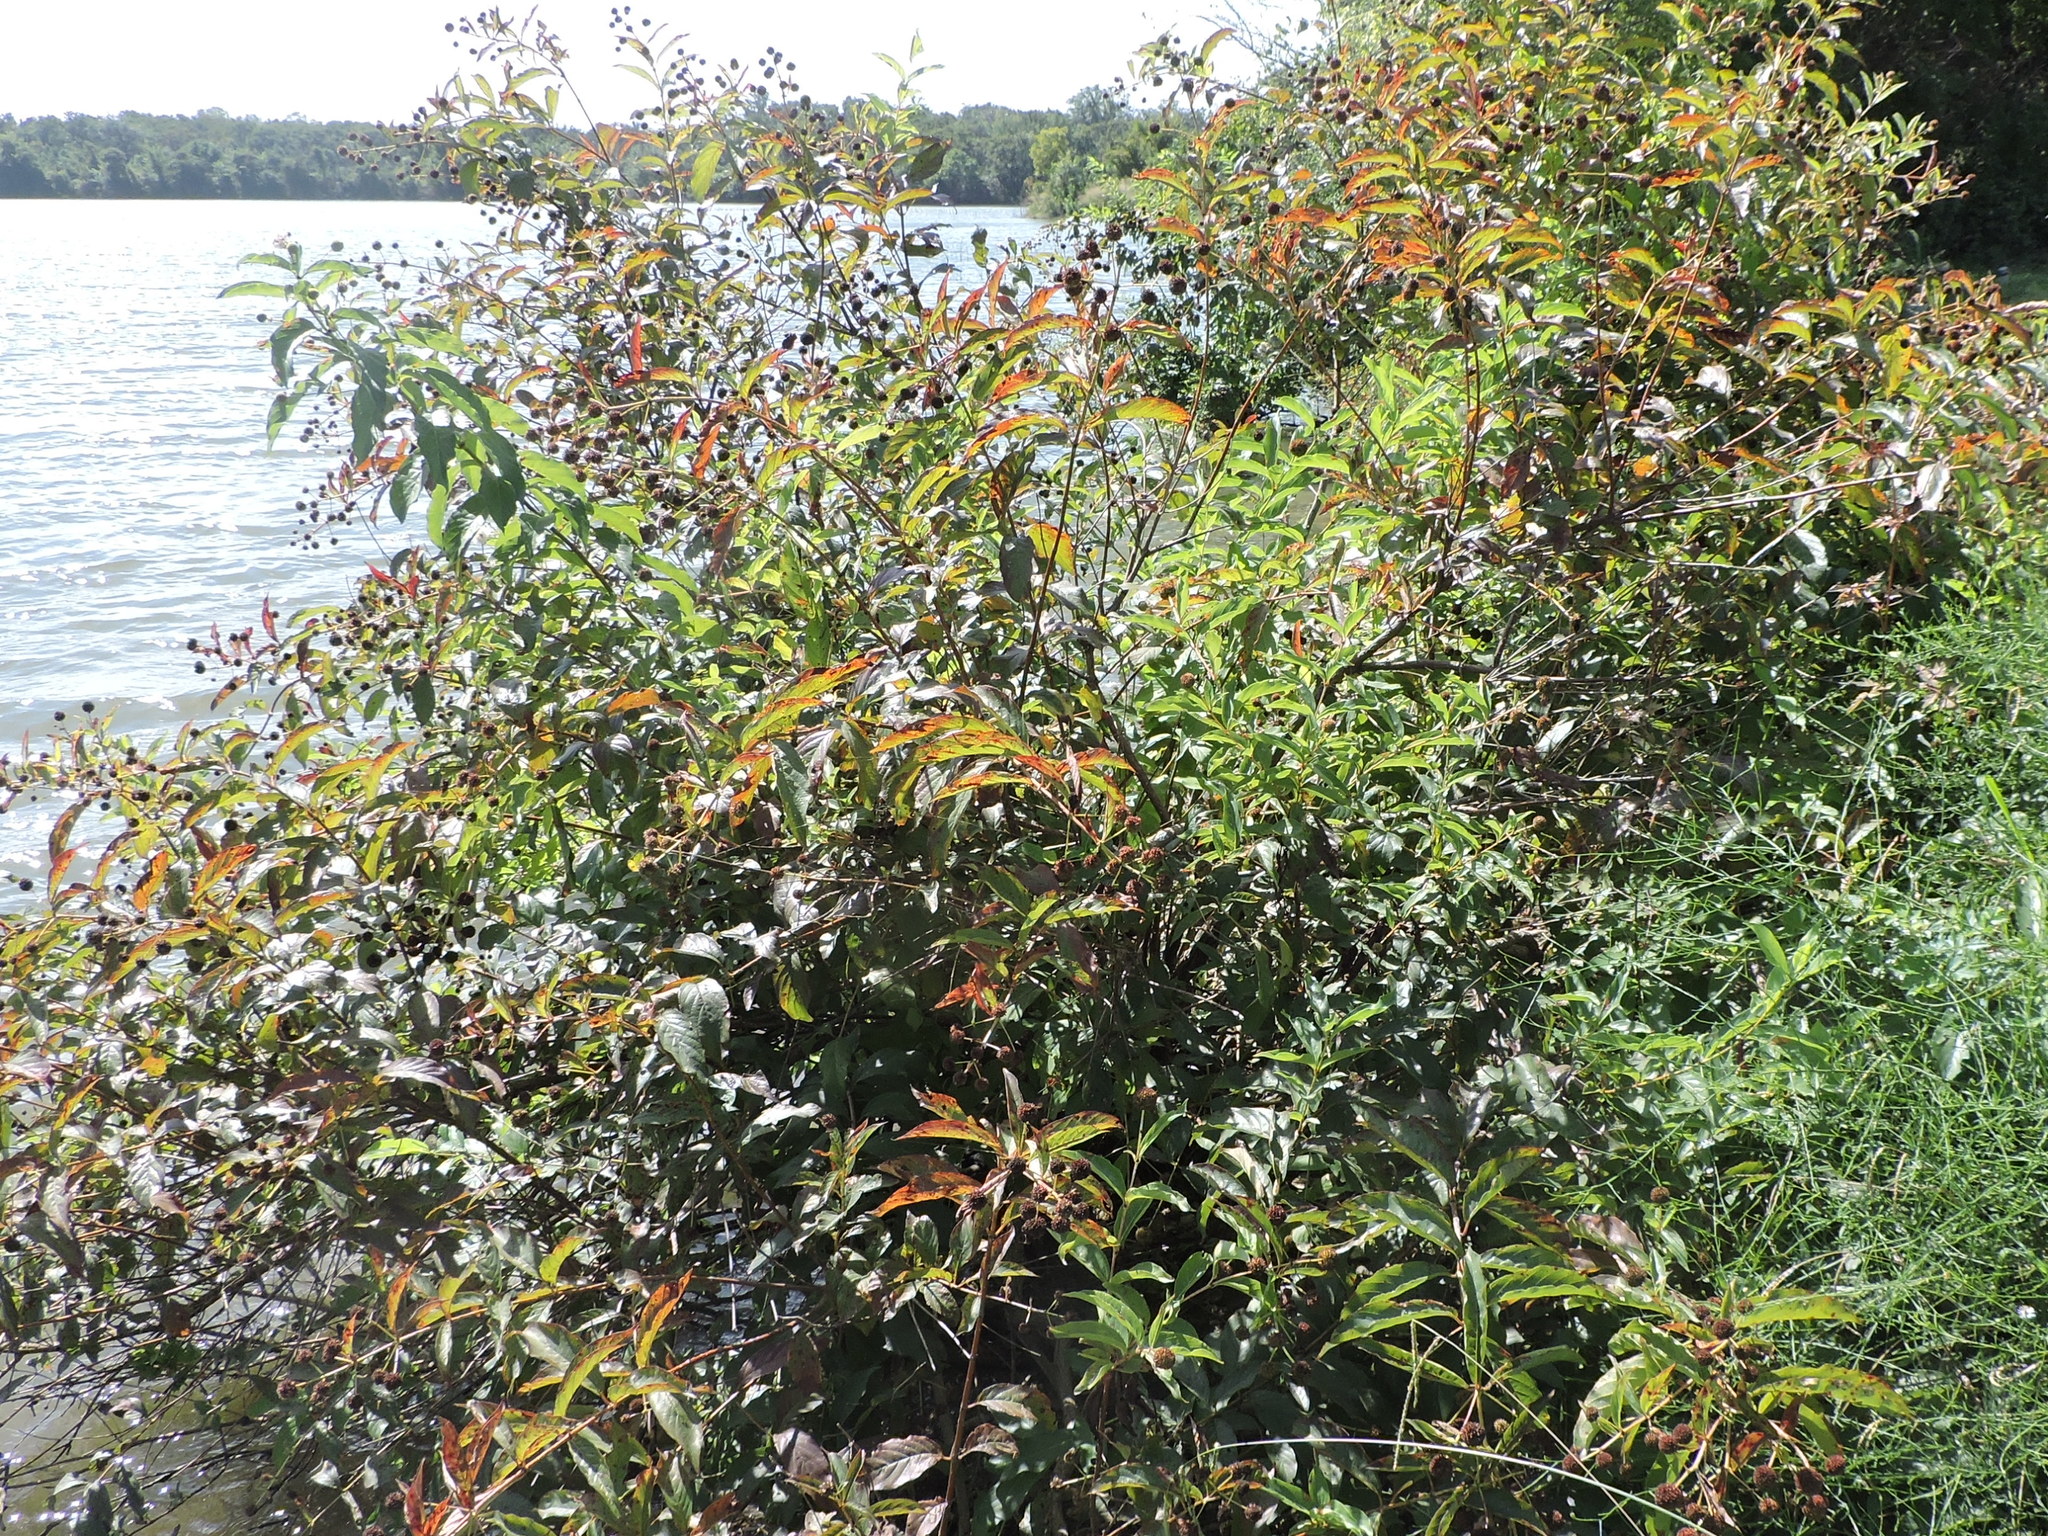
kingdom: Plantae
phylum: Tracheophyta
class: Magnoliopsida
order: Gentianales
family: Rubiaceae
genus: Cephalanthus
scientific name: Cephalanthus occidentalis
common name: Button-willow
